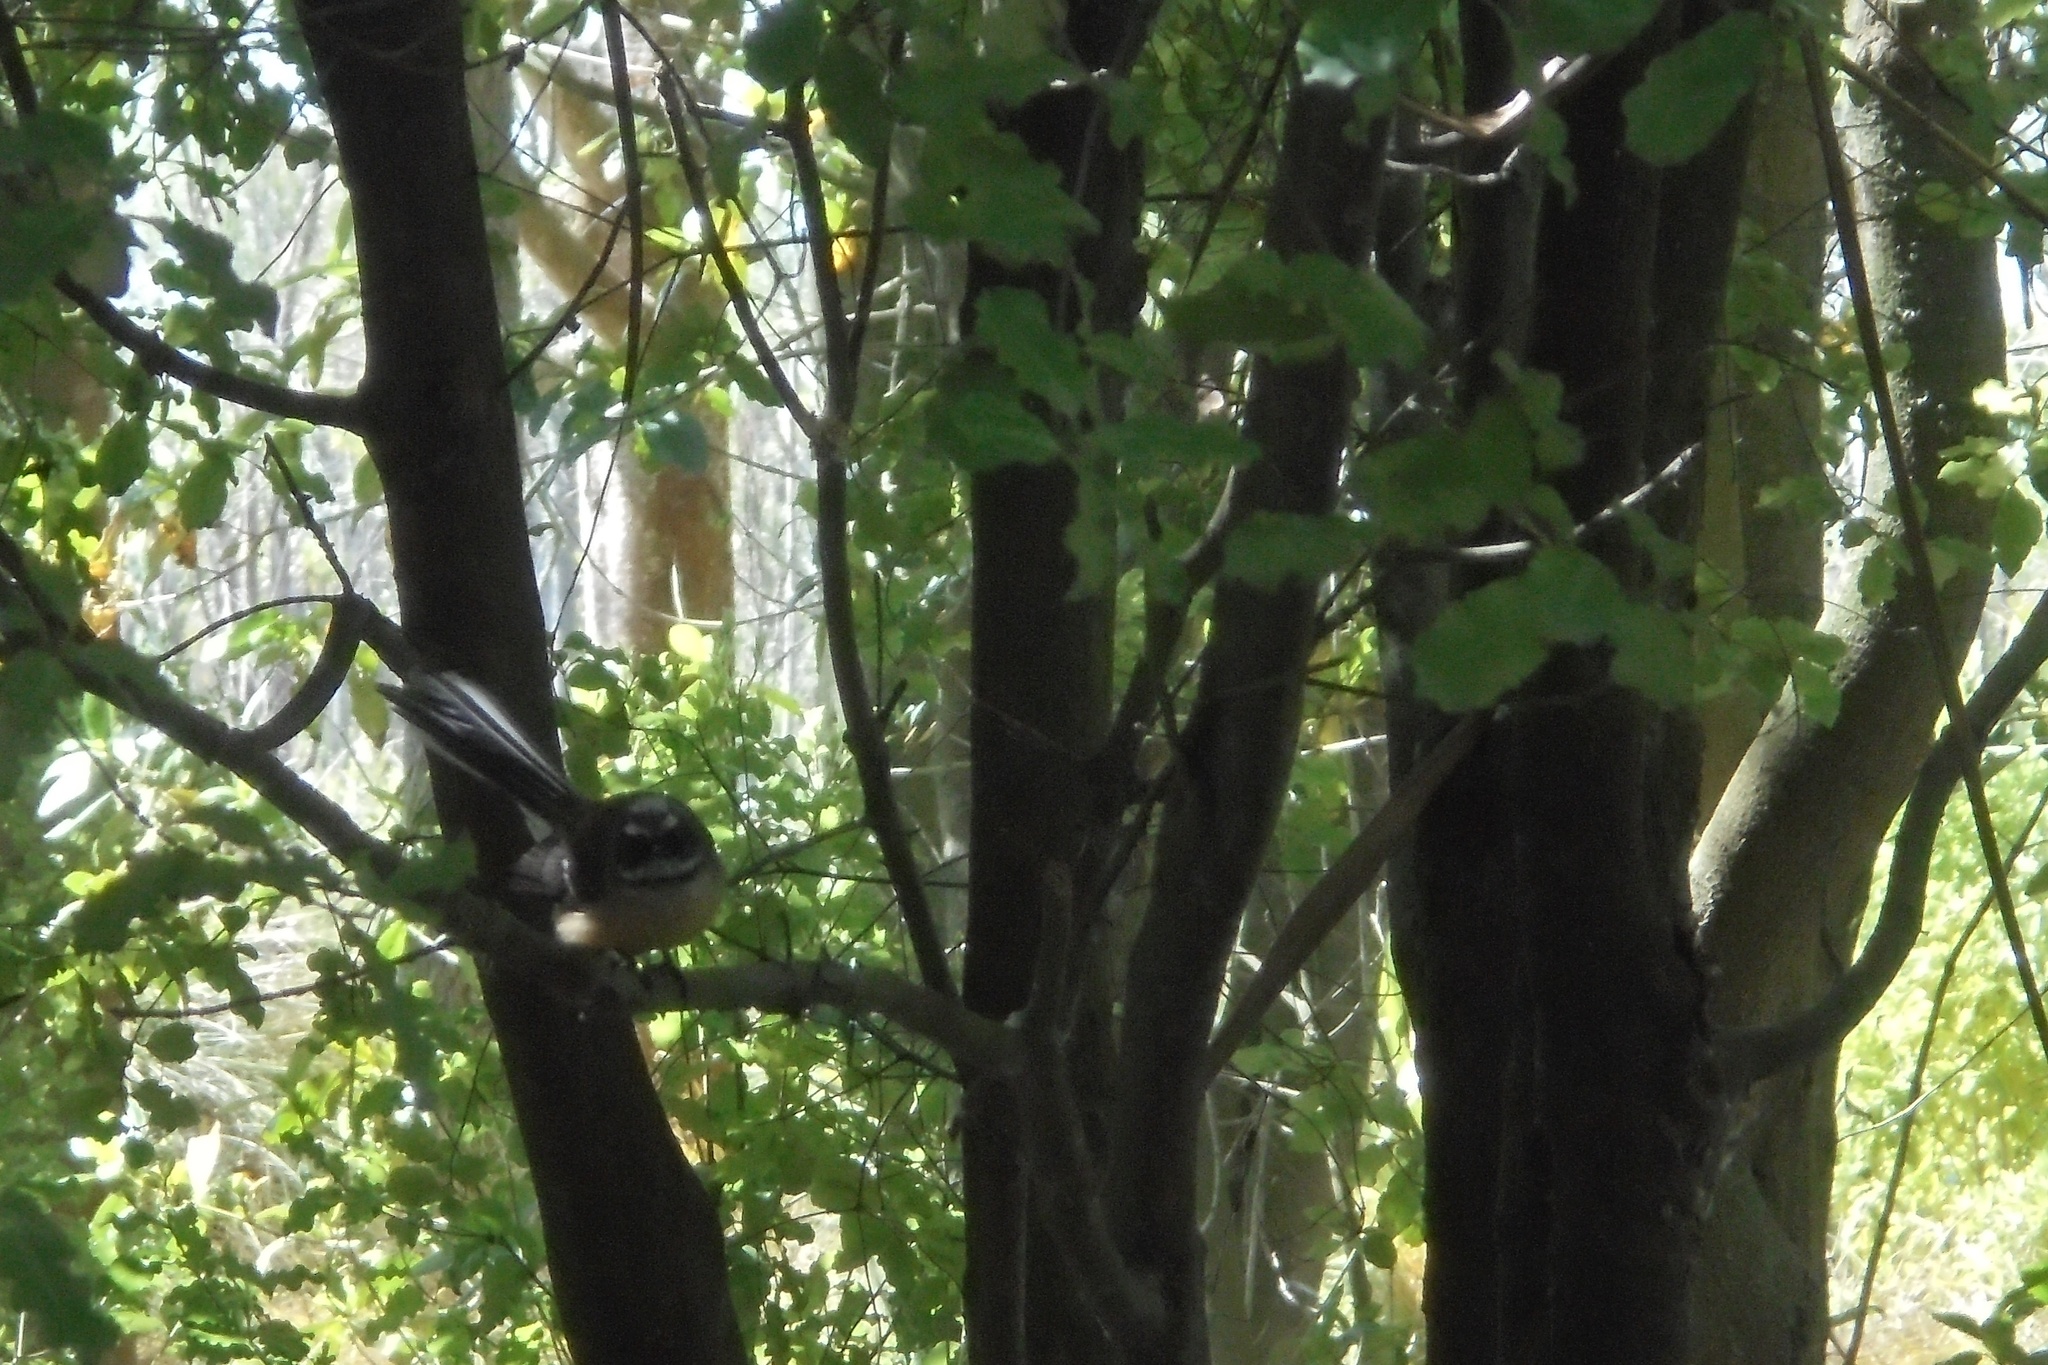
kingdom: Animalia
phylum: Chordata
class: Aves
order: Passeriformes
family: Rhipiduridae
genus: Rhipidura
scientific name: Rhipidura fuliginosa
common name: New zealand fantail
